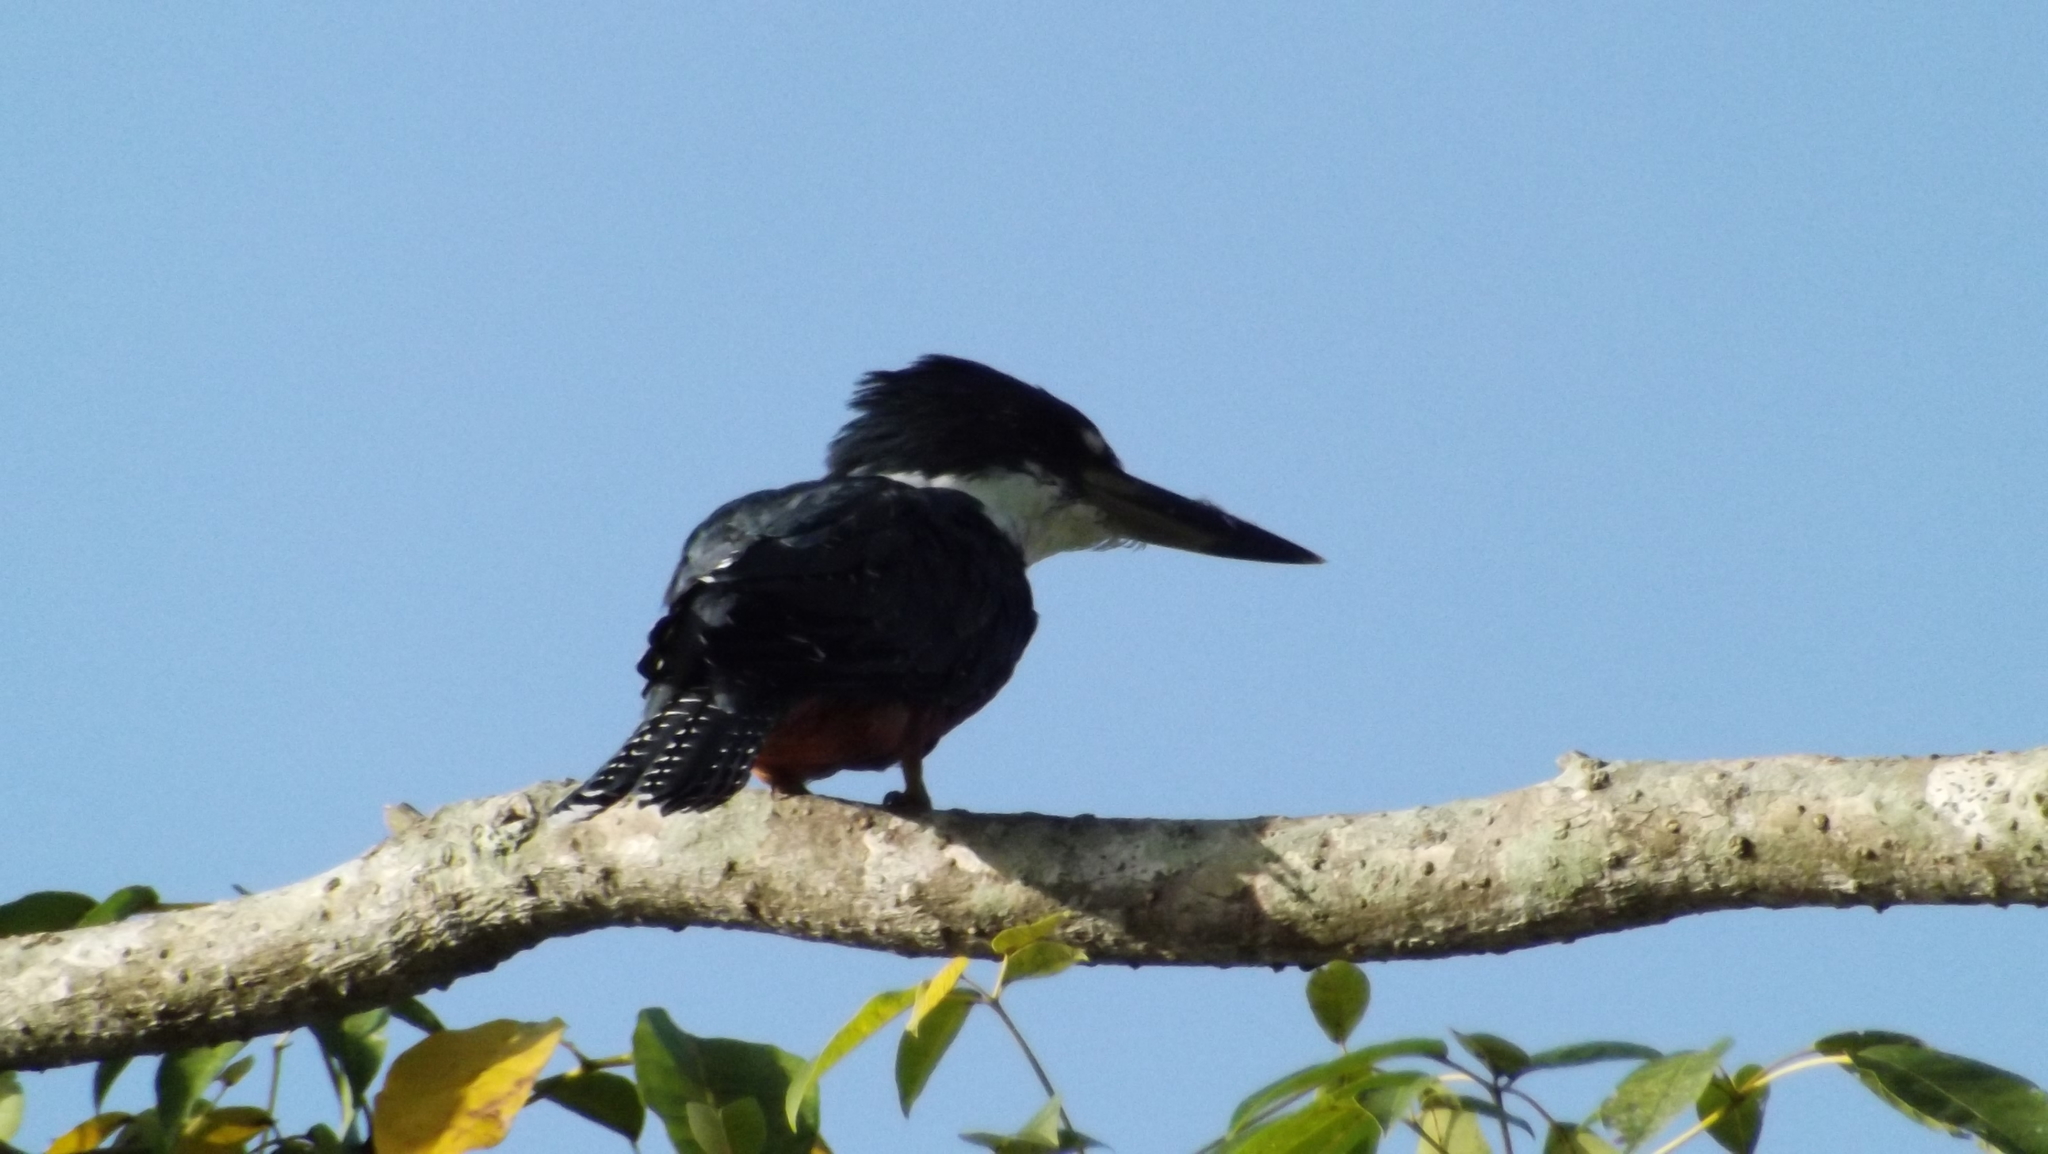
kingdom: Animalia
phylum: Chordata
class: Aves
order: Coraciiformes
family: Alcedinidae
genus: Megaceryle
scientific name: Megaceryle torquata
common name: Ringed kingfisher
